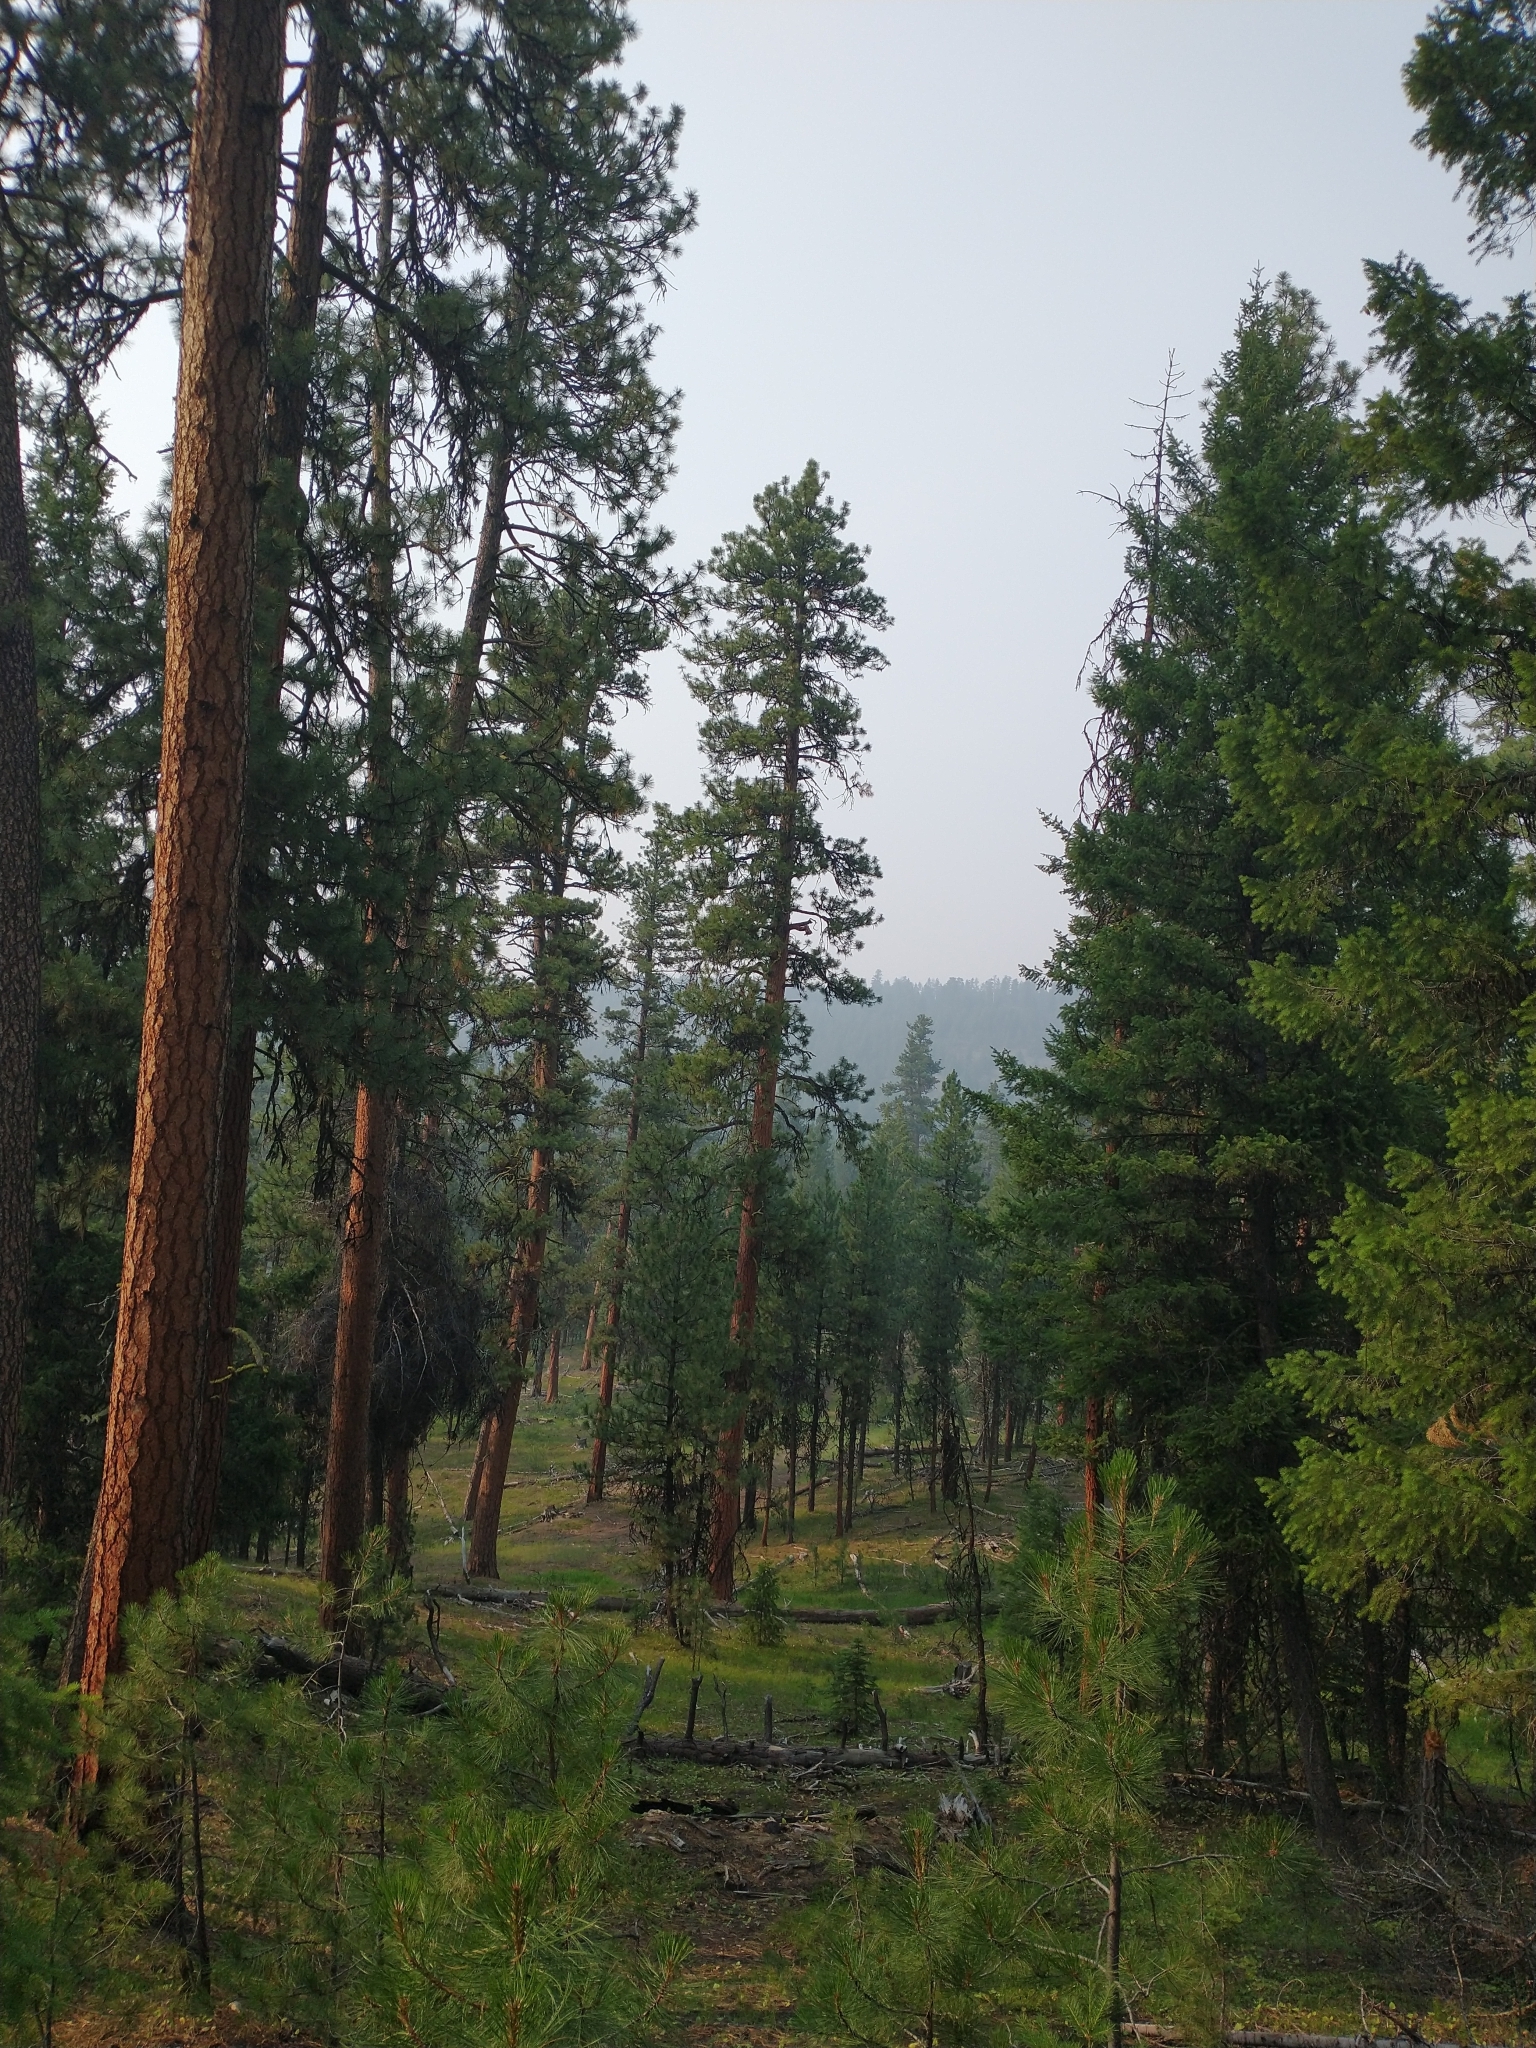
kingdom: Plantae
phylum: Tracheophyta
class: Pinopsida
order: Pinales
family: Pinaceae
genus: Pinus
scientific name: Pinus ponderosa
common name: Western yellow-pine
